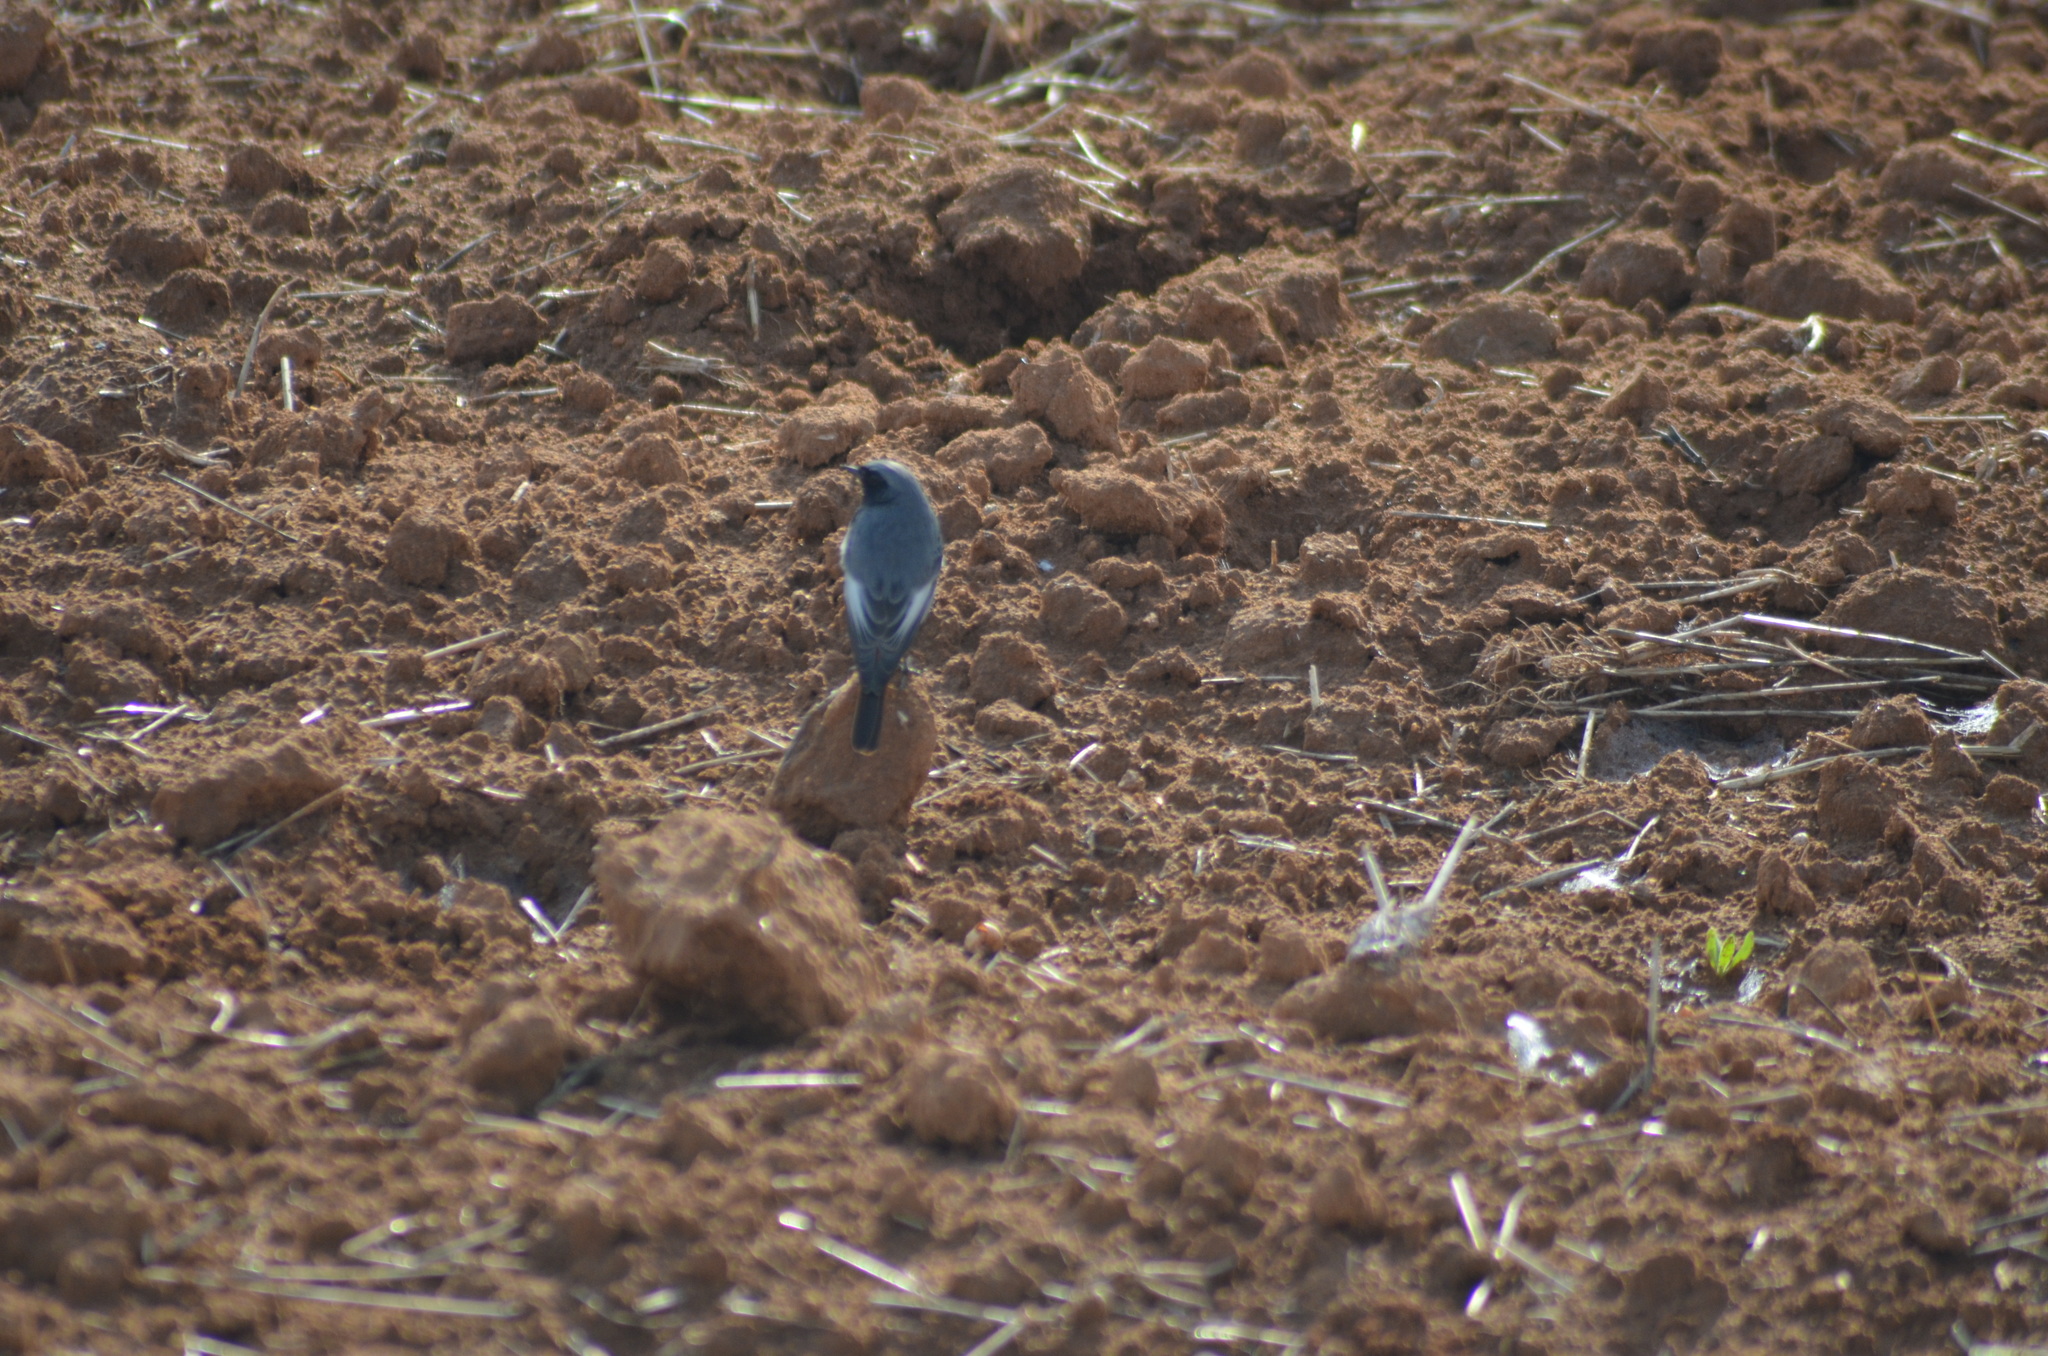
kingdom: Animalia
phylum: Chordata
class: Aves
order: Passeriformes
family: Muscicapidae
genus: Phoenicurus
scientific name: Phoenicurus ochruros
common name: Black redstart
